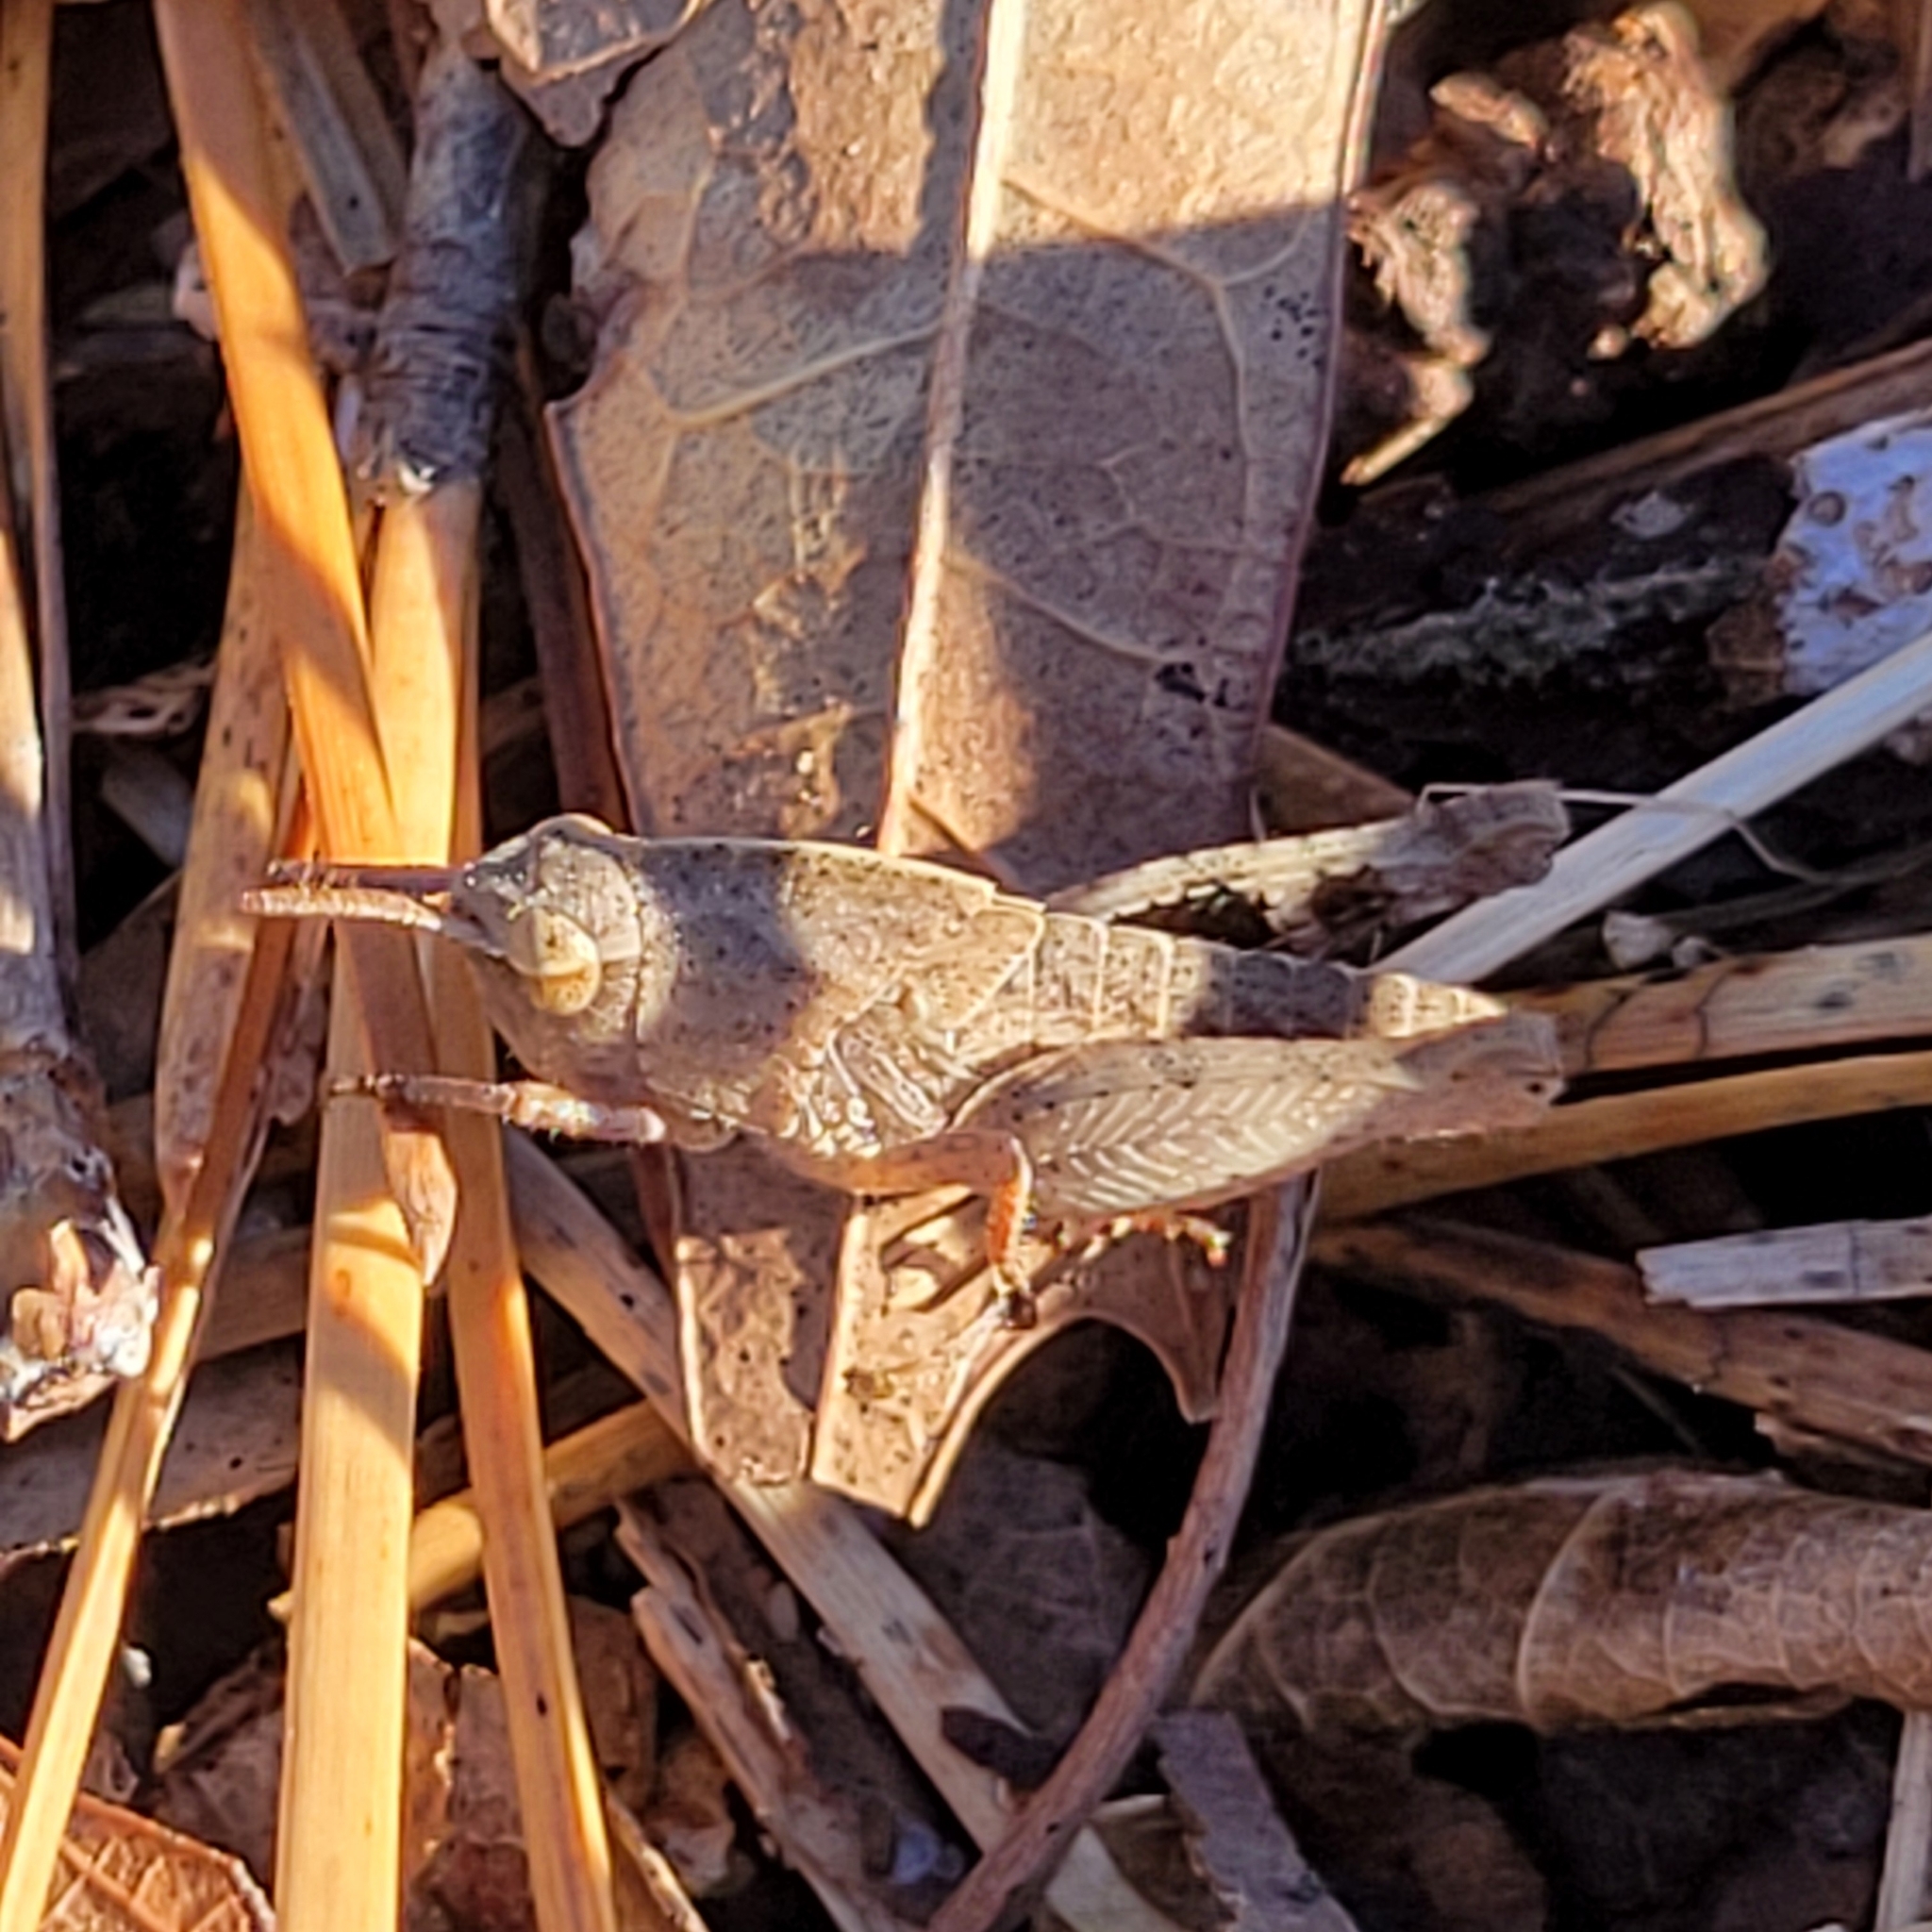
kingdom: Animalia
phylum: Arthropoda
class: Insecta
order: Orthoptera
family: Acrididae
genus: Chortophaga
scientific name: Chortophaga viridifasciata
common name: Green-striped grasshopper
